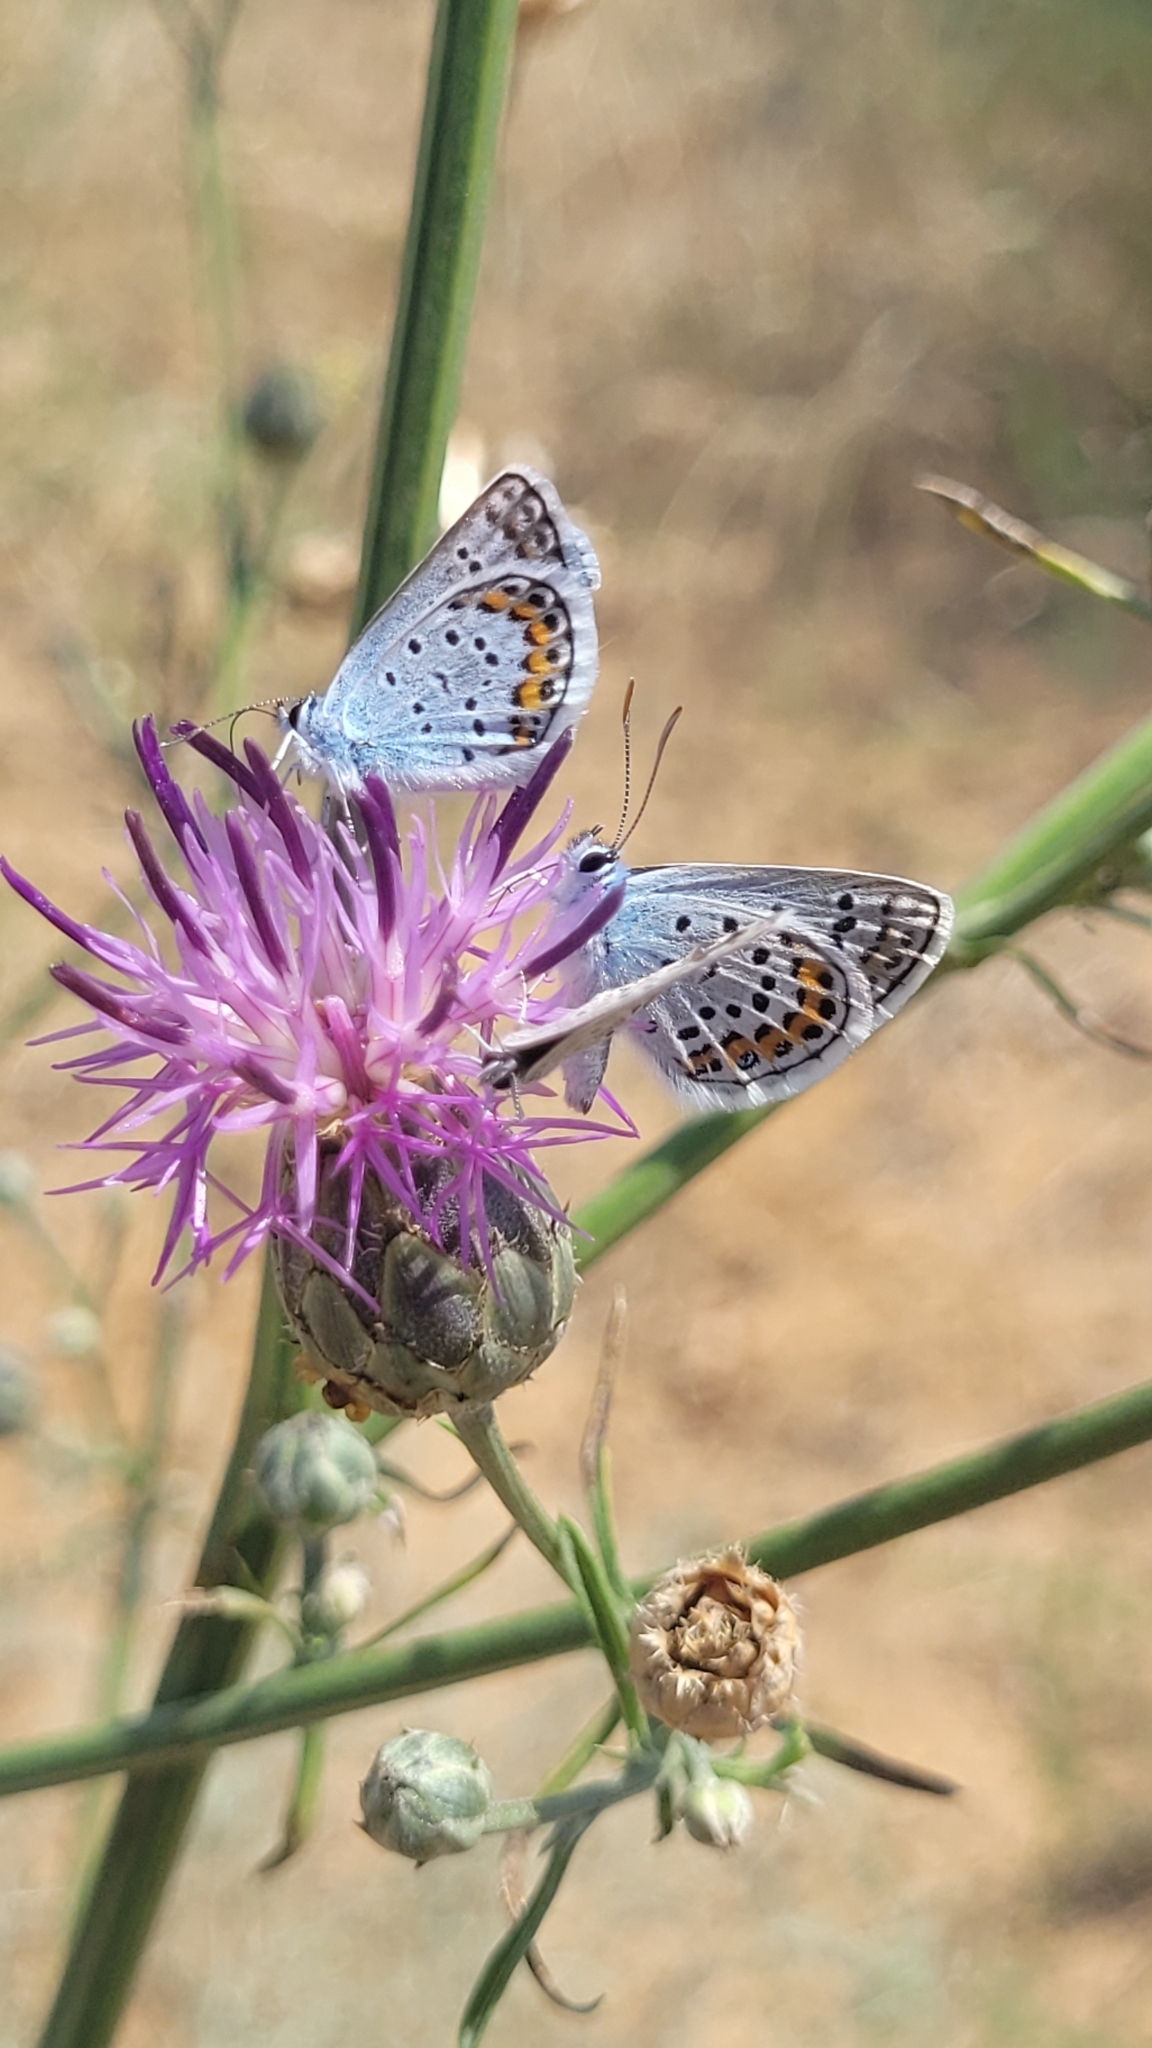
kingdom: Animalia
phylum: Arthropoda
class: Insecta
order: Lepidoptera
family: Lycaenidae
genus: Plebejus
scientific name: Plebejus argus
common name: Silver-studded blue
